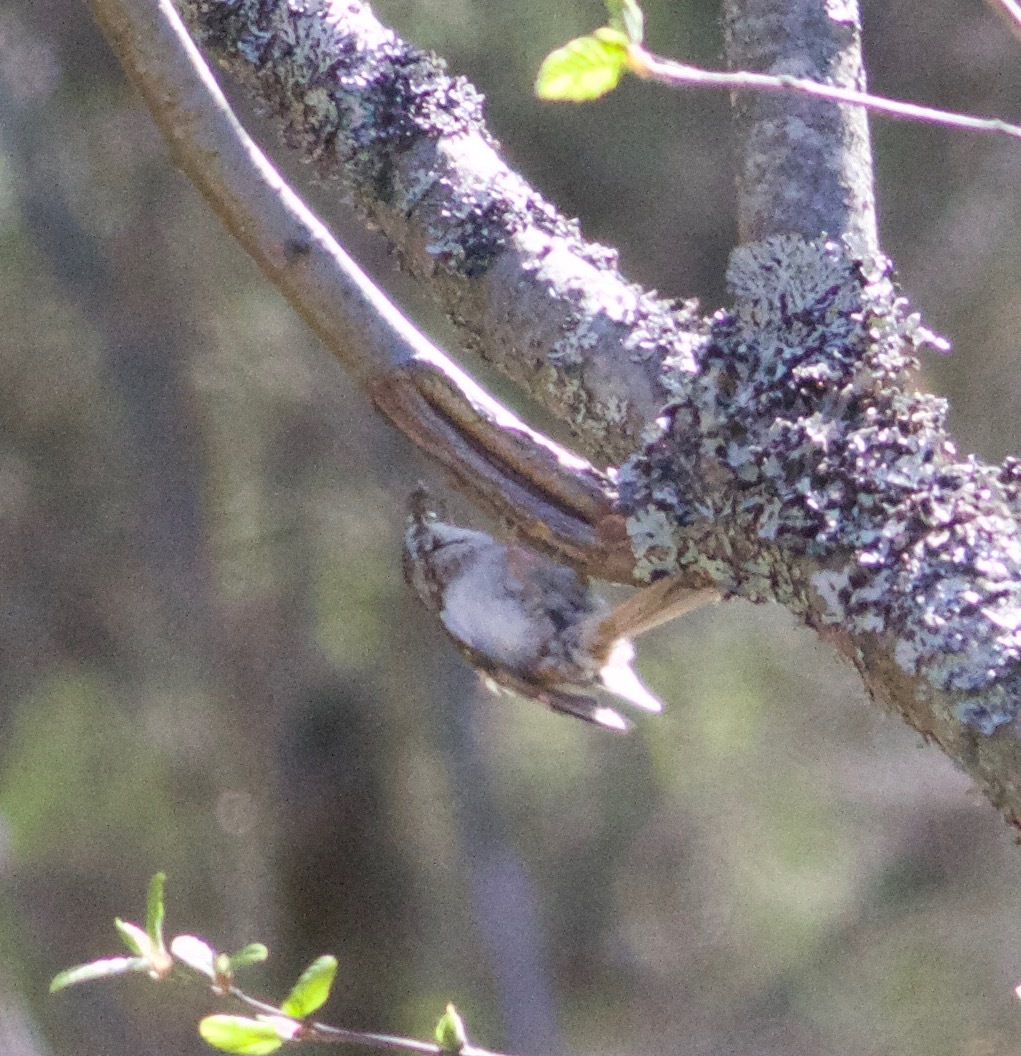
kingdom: Animalia
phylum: Chordata
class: Aves
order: Passeriformes
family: Certhiidae
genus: Certhia
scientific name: Certhia familiaris
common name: Eurasian treecreeper
